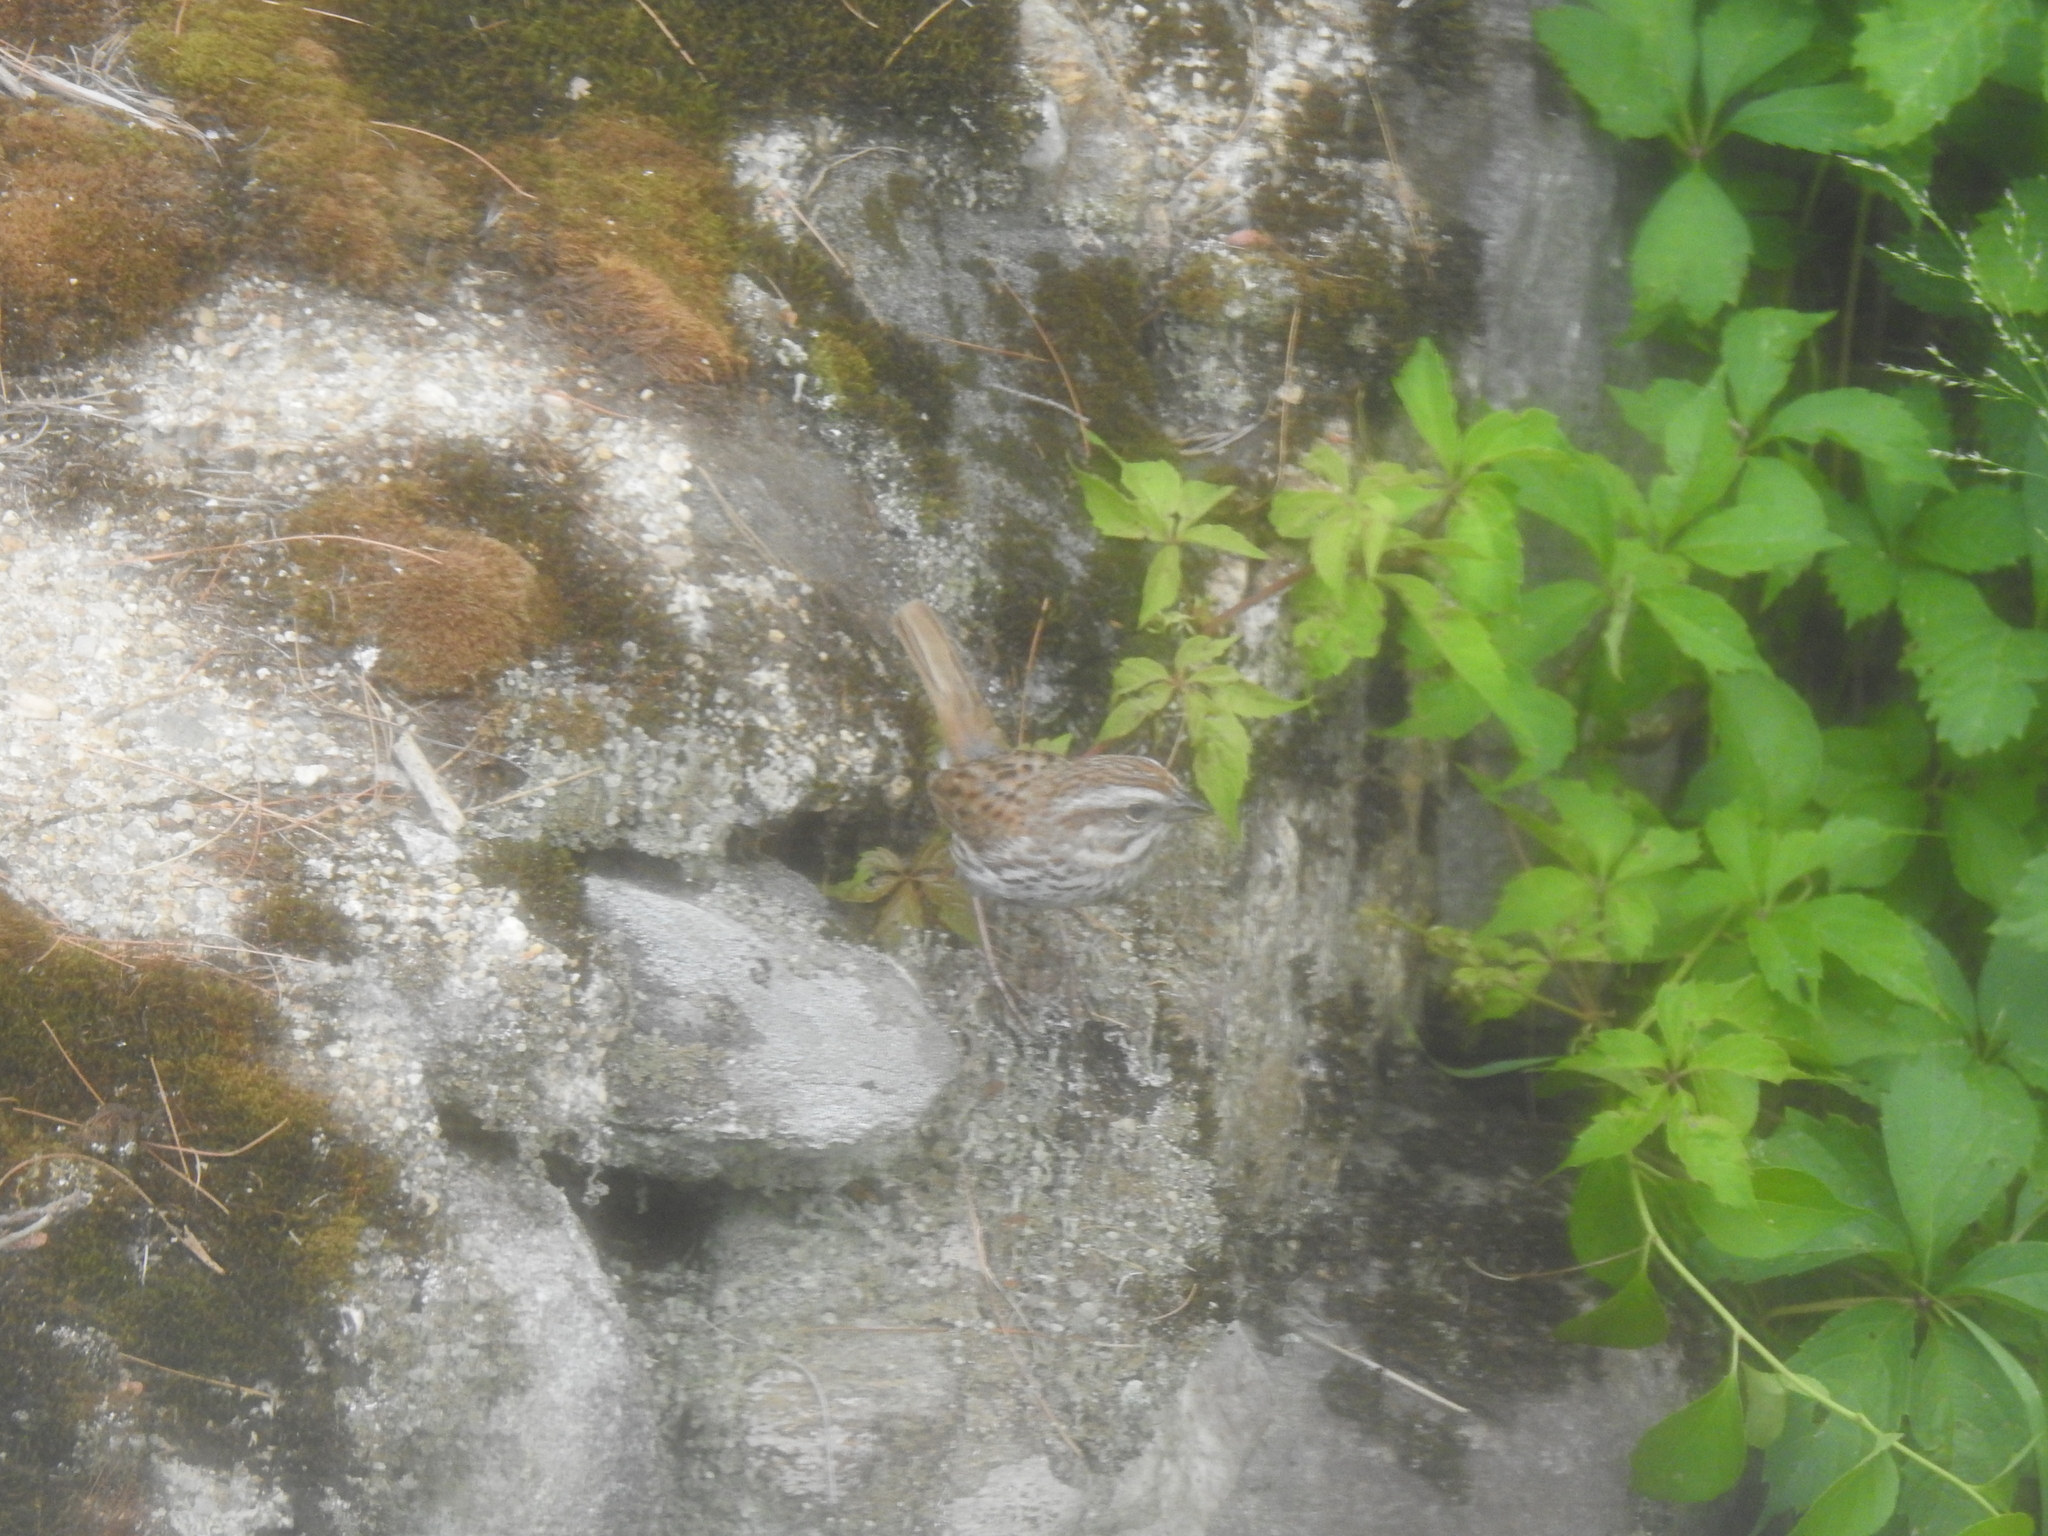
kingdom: Animalia
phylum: Chordata
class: Aves
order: Passeriformes
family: Passerellidae
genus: Melospiza
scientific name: Melospiza melodia
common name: Song sparrow
